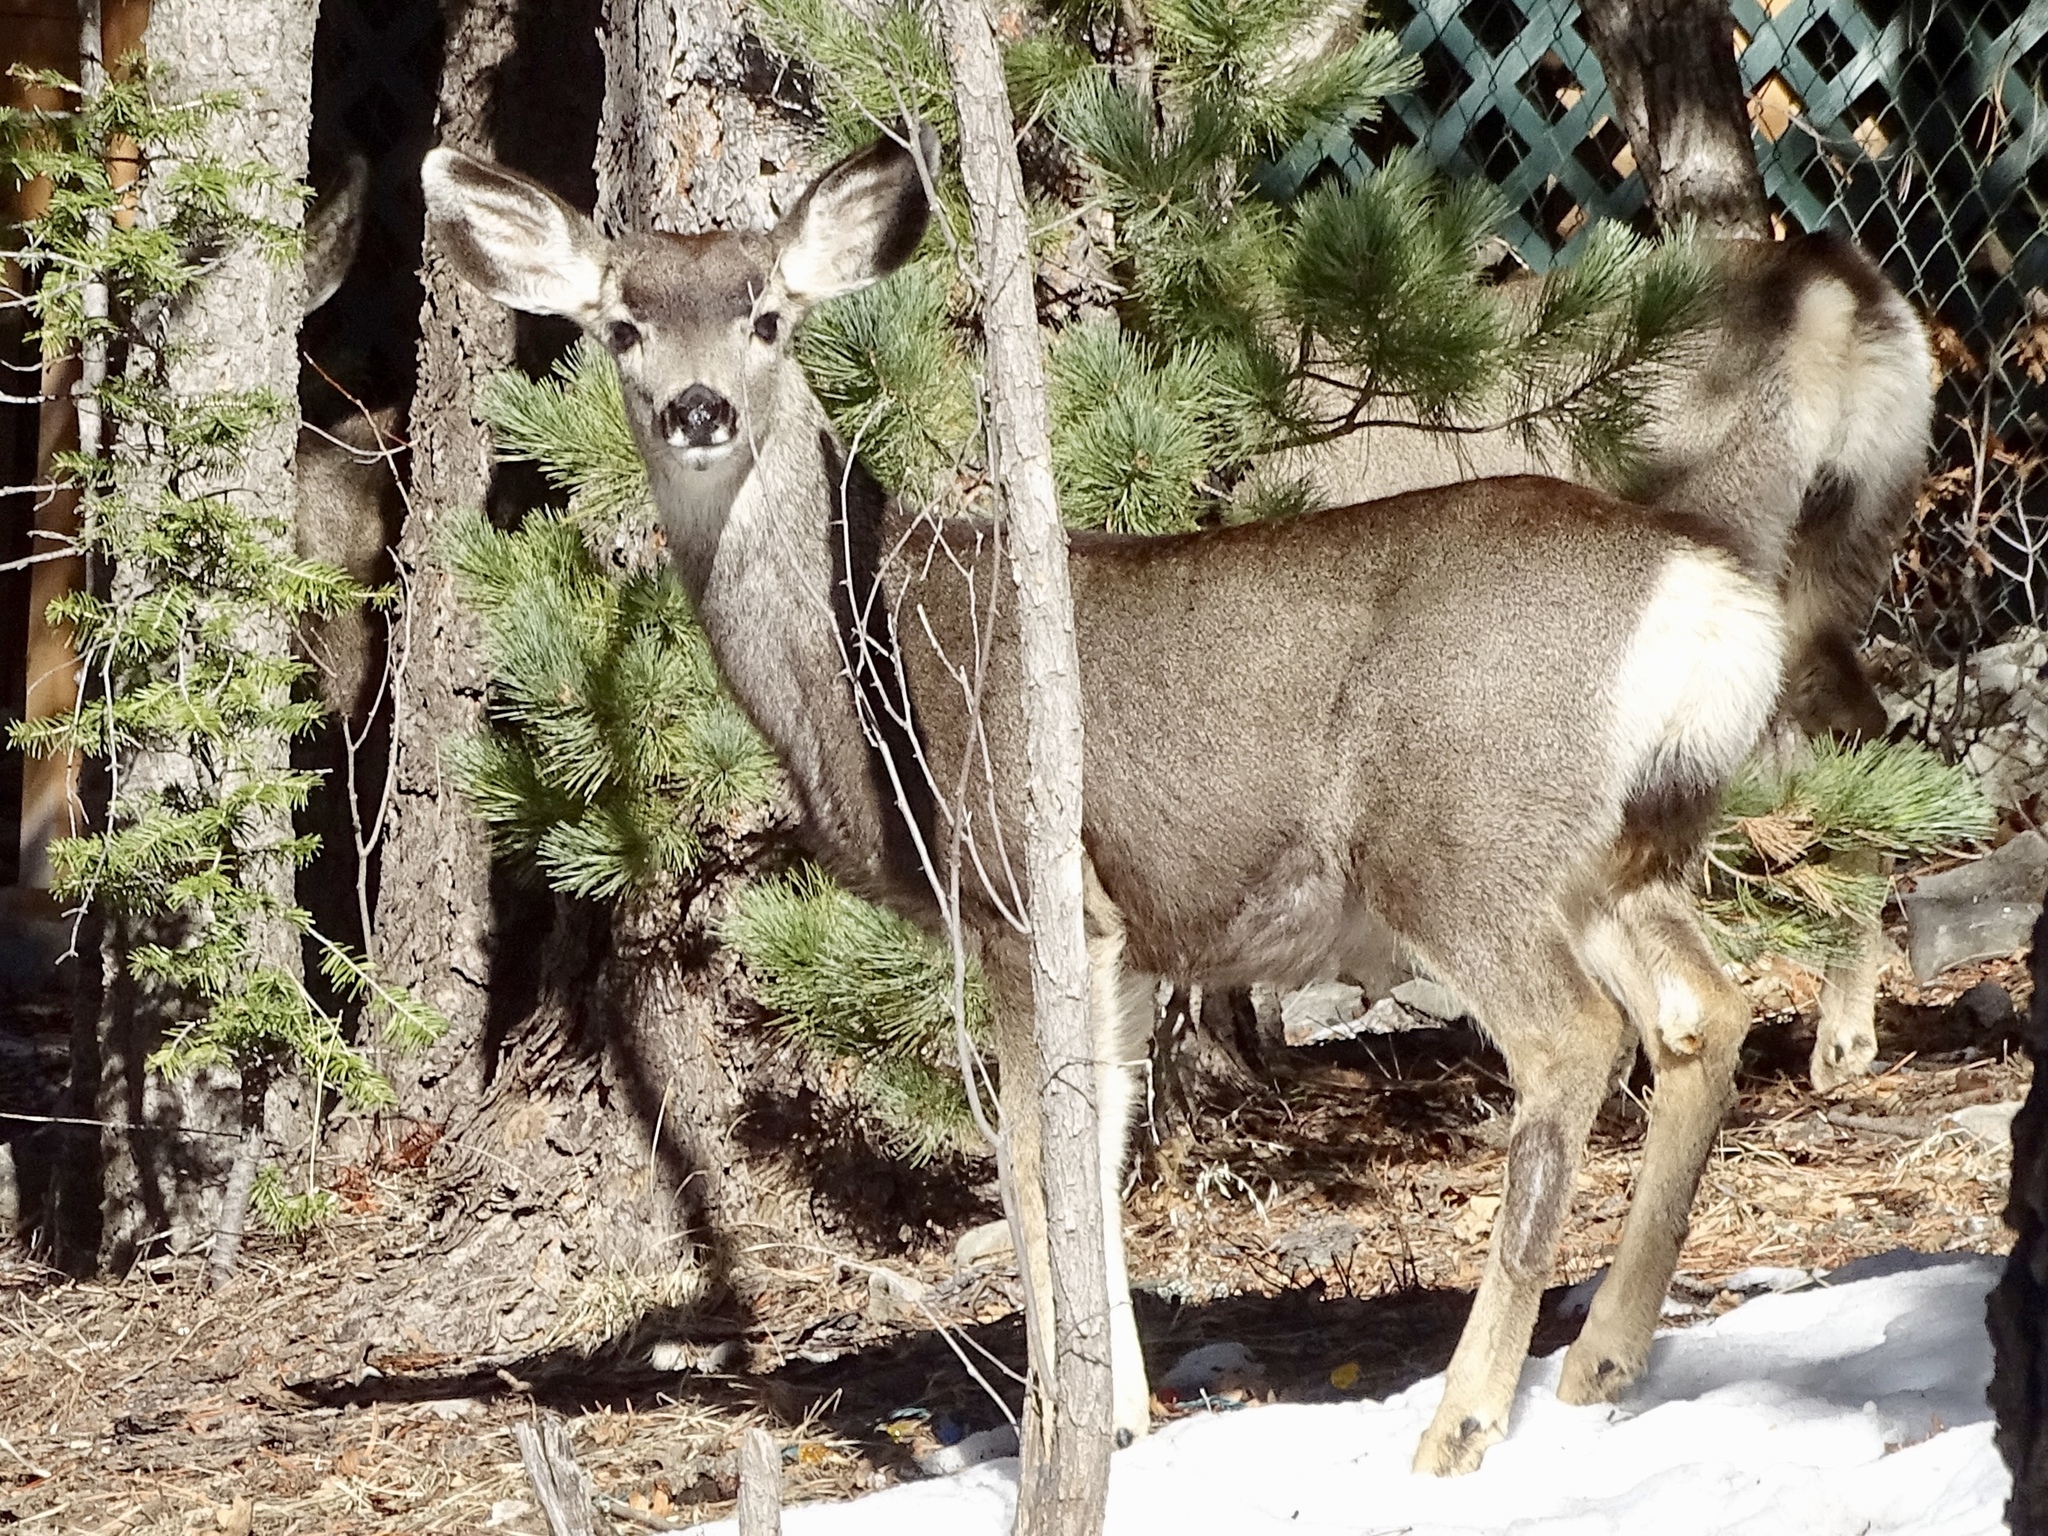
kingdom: Animalia
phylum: Chordata
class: Mammalia
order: Artiodactyla
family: Cervidae
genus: Odocoileus
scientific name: Odocoileus hemionus
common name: Mule deer
